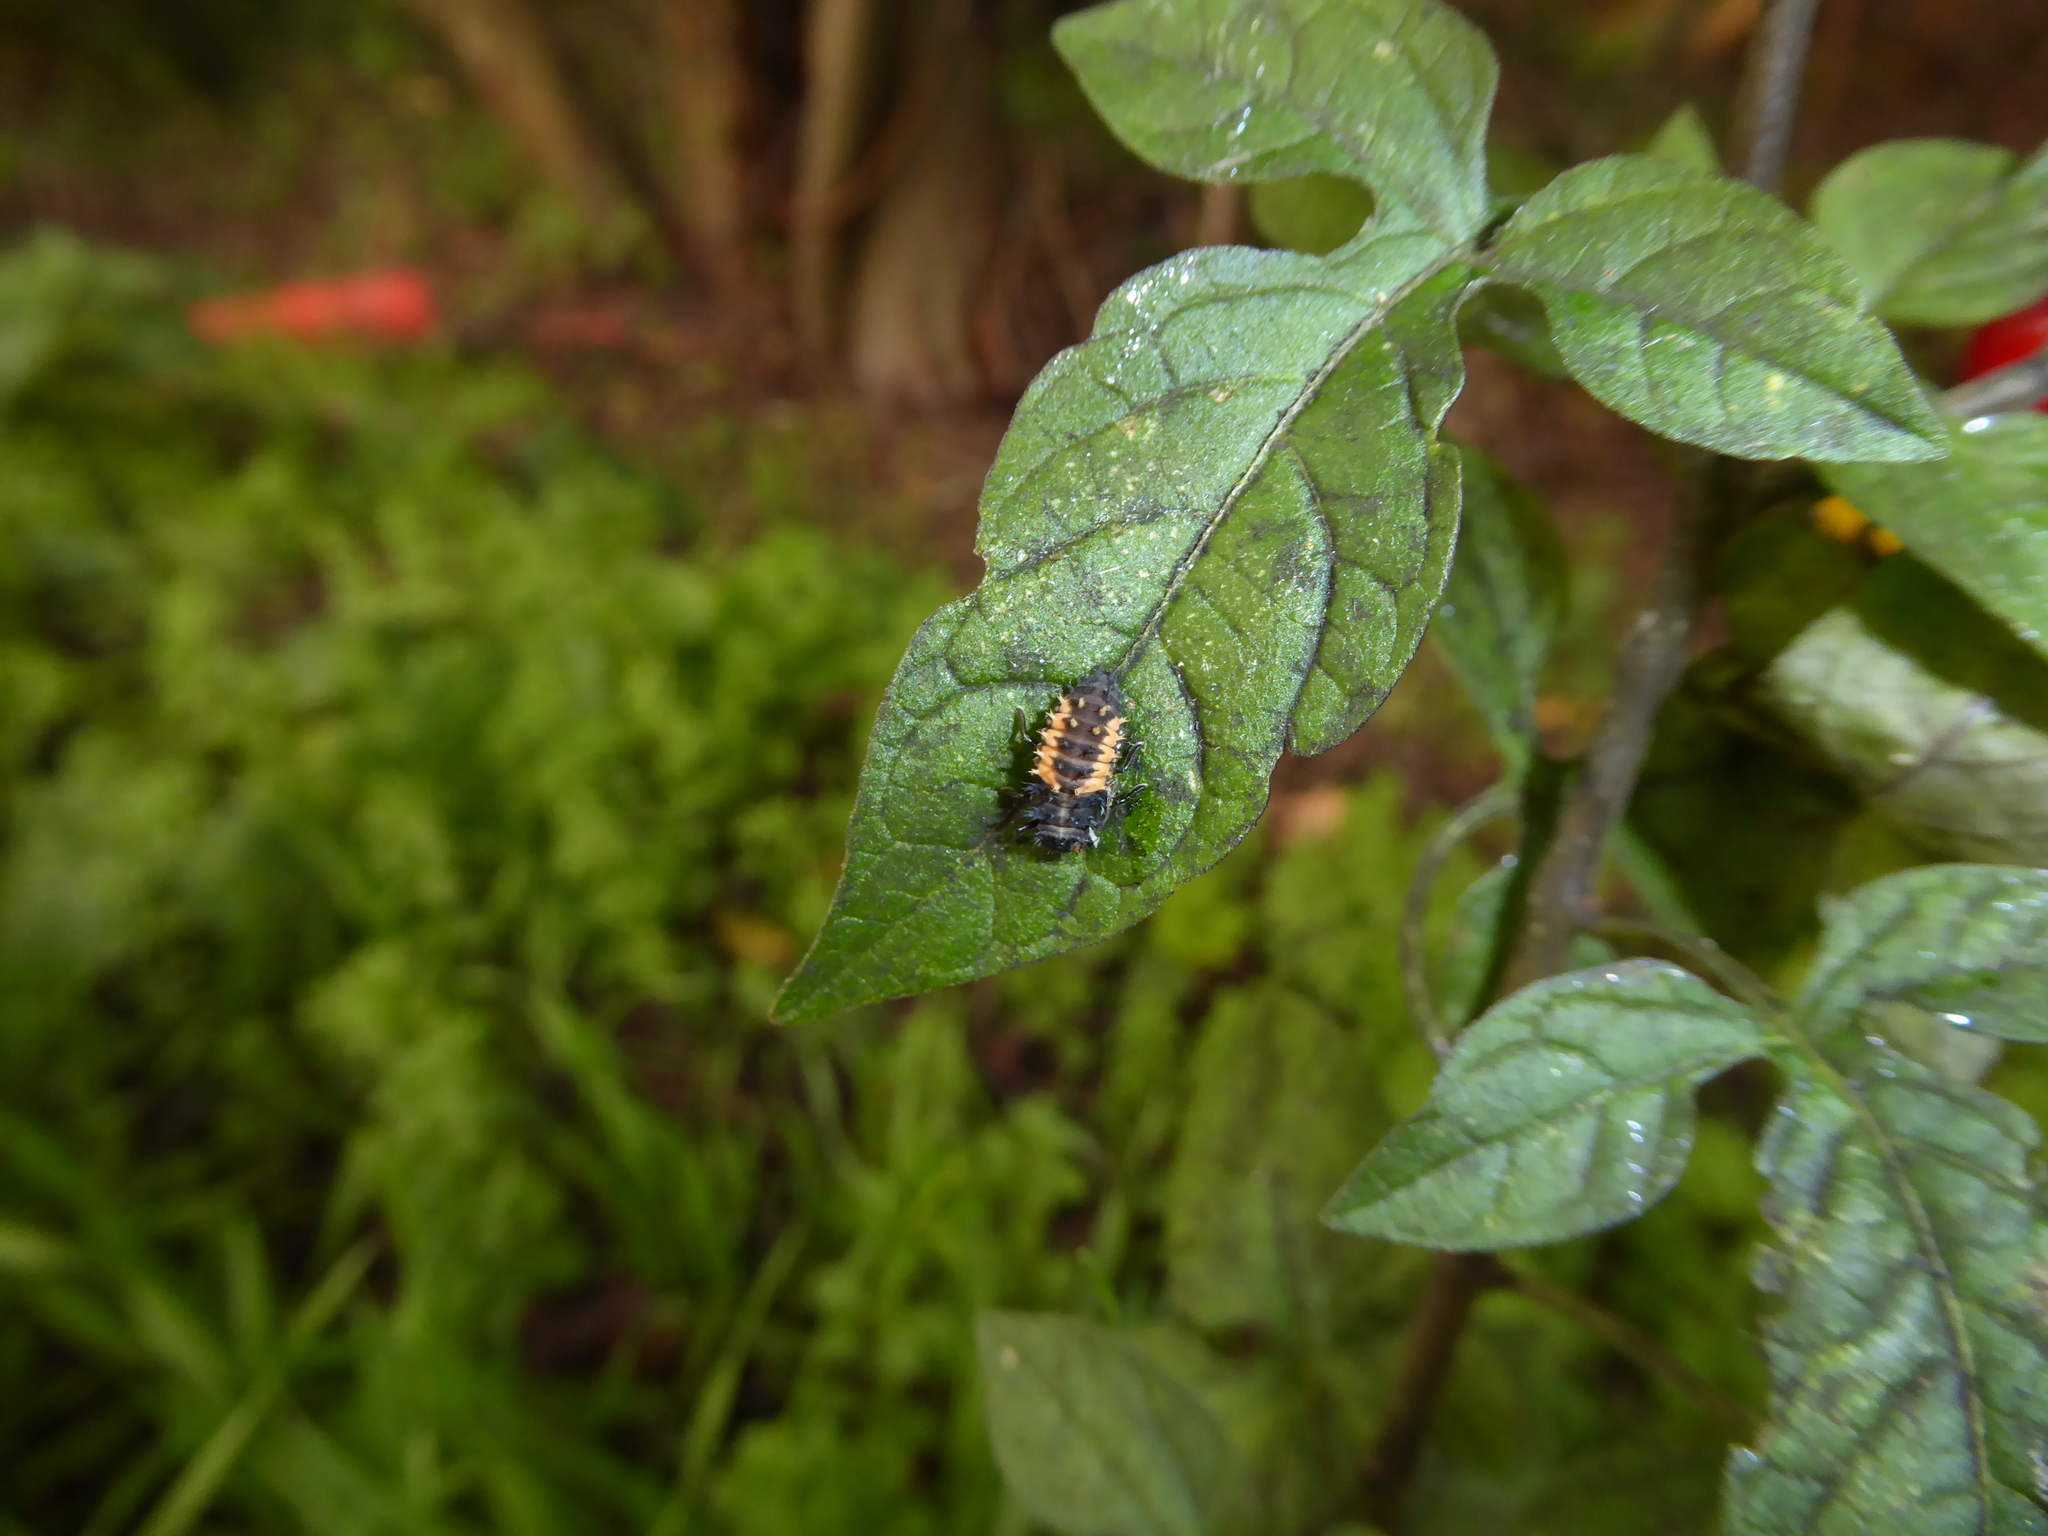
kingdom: Animalia
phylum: Arthropoda
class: Insecta
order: Coleoptera
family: Coccinellidae
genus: Harmonia
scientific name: Harmonia axyridis
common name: Harlequin ladybird
